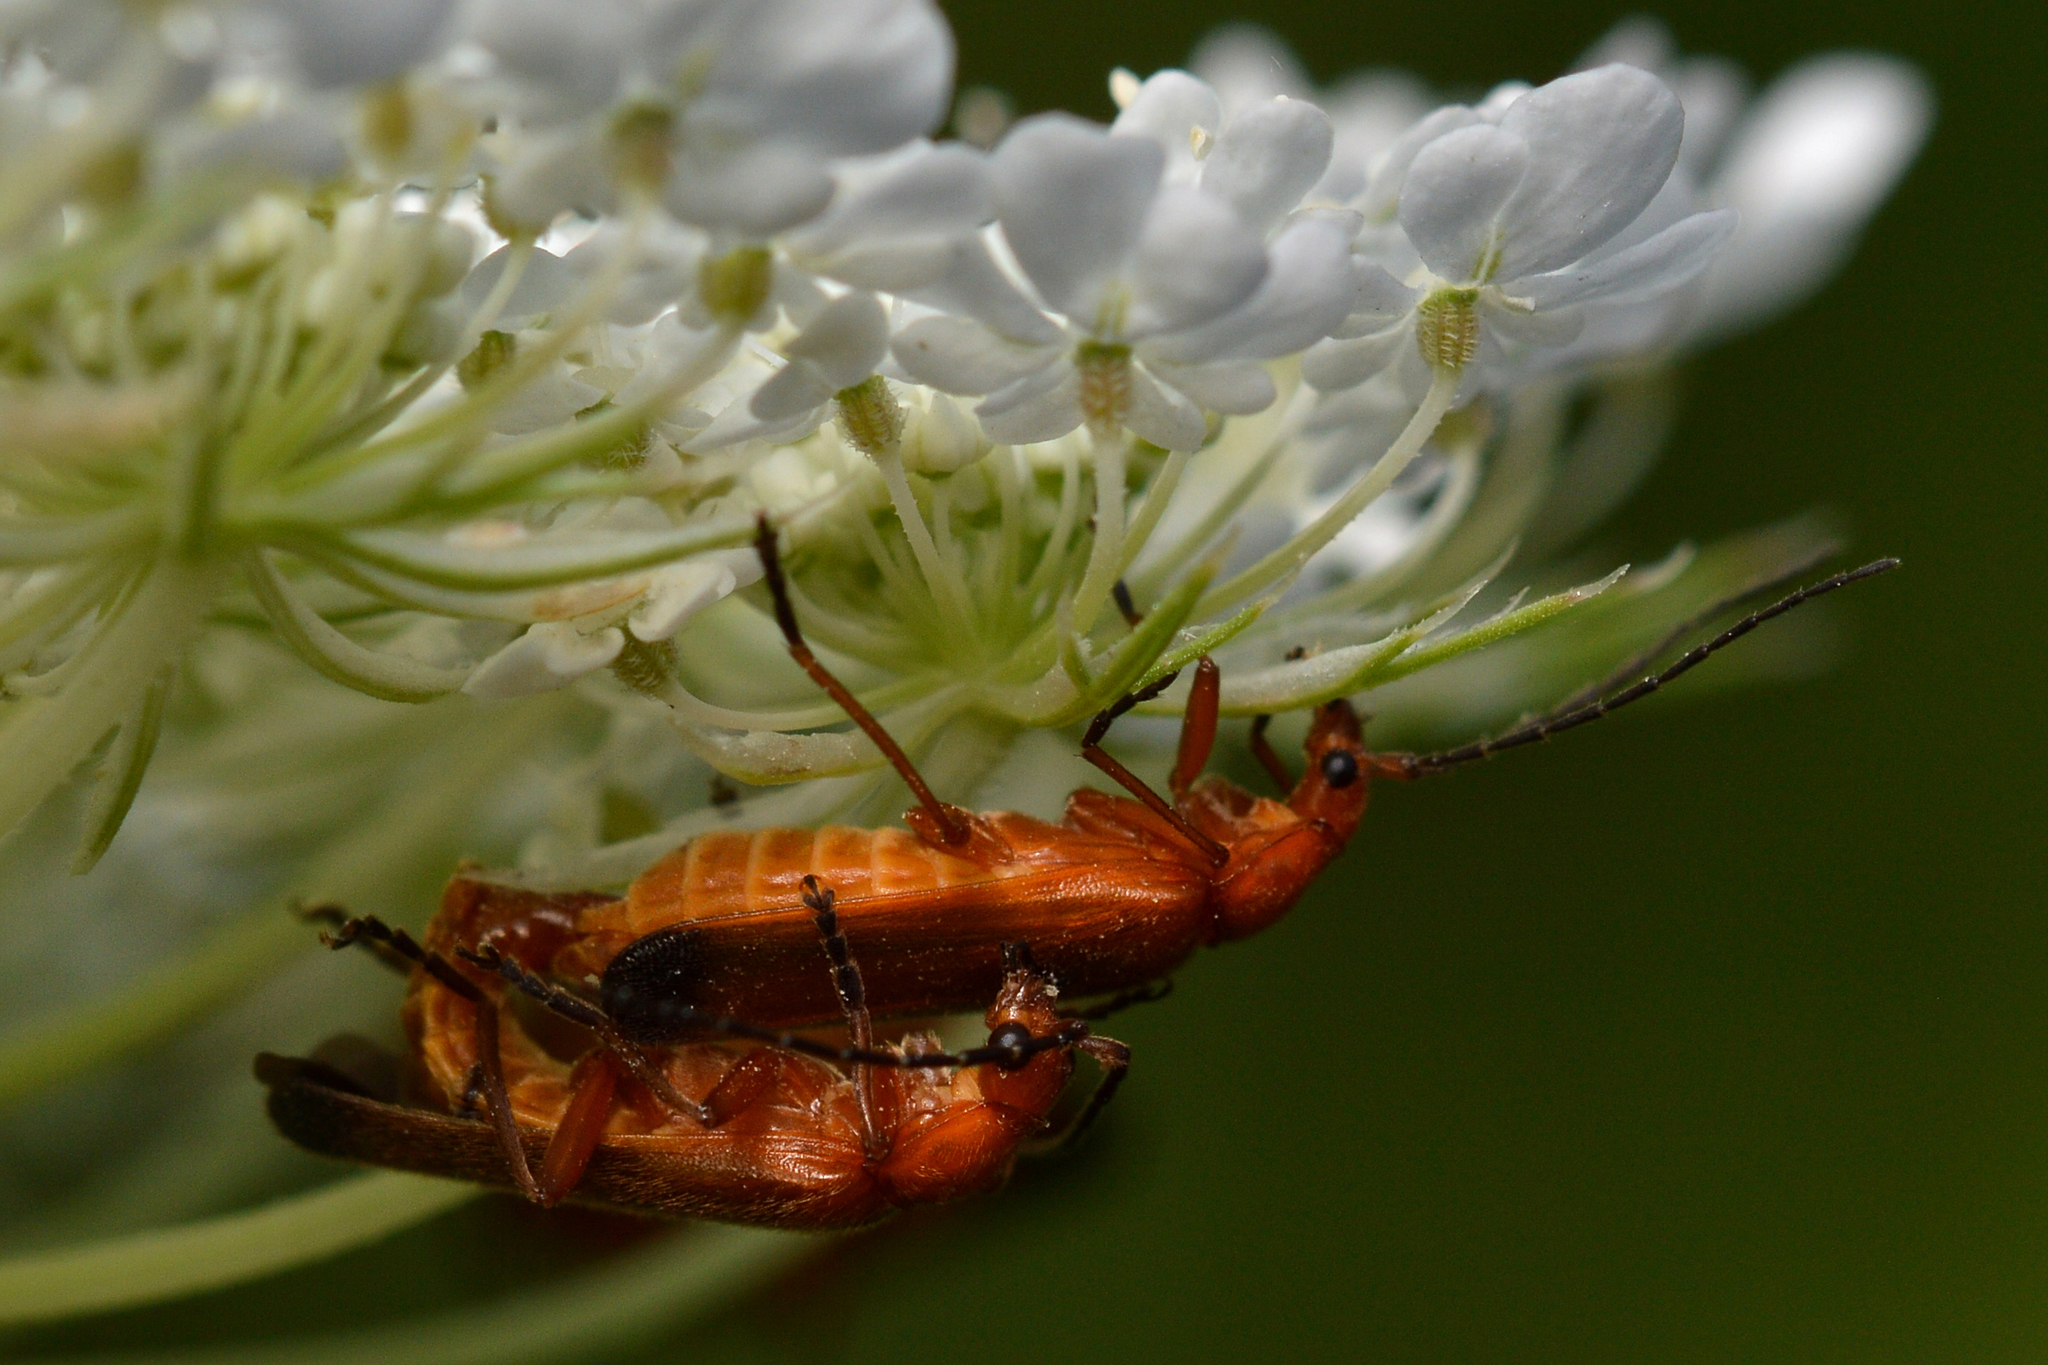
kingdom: Animalia
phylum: Arthropoda
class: Insecta
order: Coleoptera
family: Cantharidae
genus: Rhagonycha
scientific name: Rhagonycha fulva
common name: Common red soldier beetle
